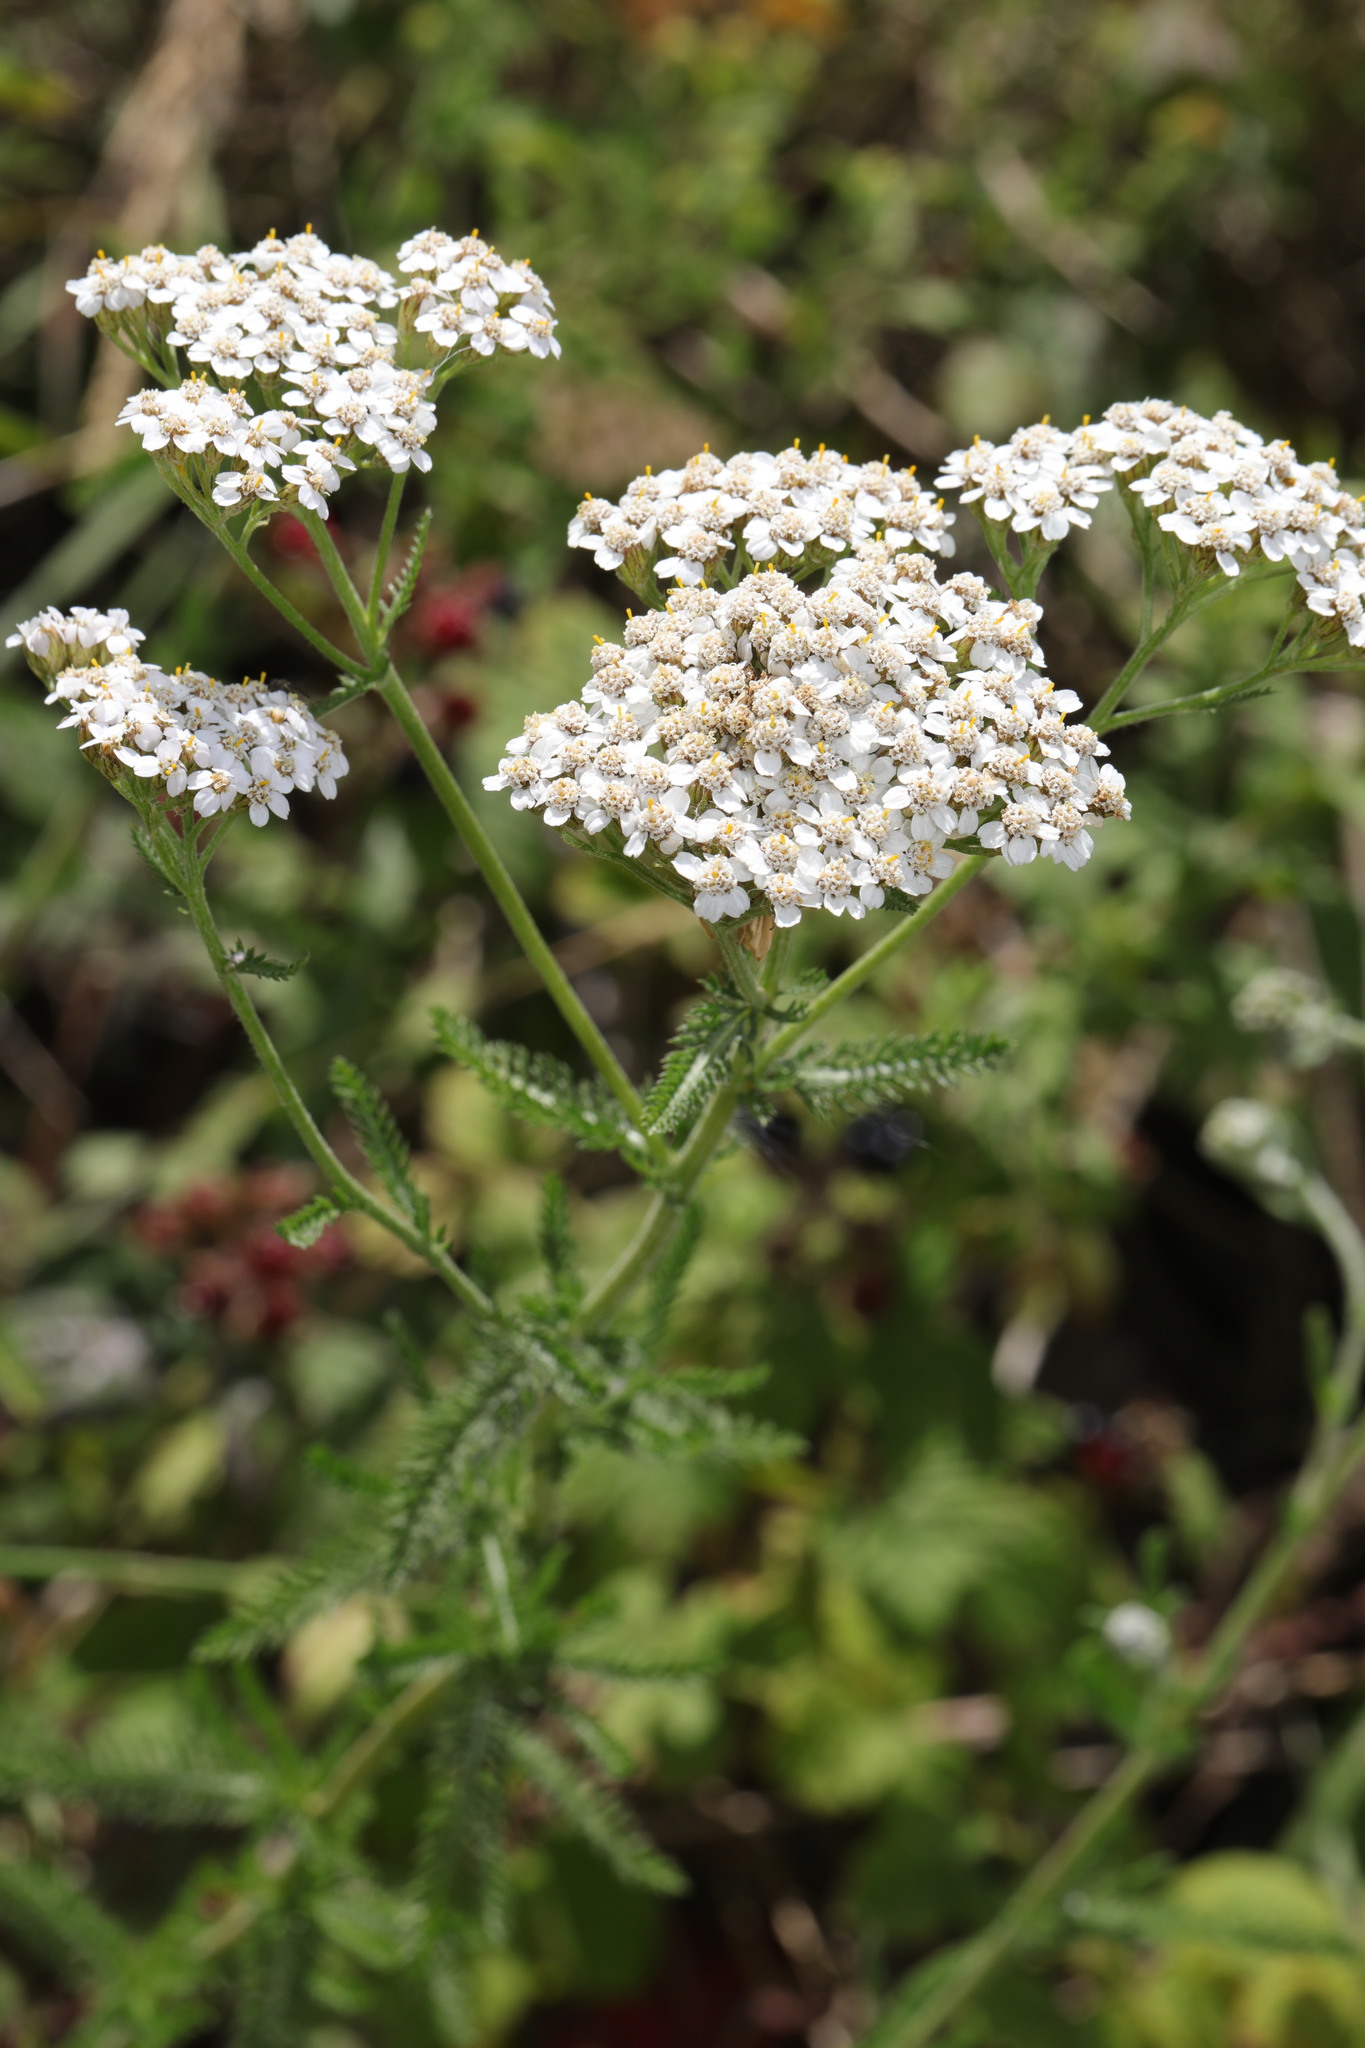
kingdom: Plantae
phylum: Tracheophyta
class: Magnoliopsida
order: Asterales
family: Asteraceae
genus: Achillea
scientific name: Achillea millefolium
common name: Yarrow
